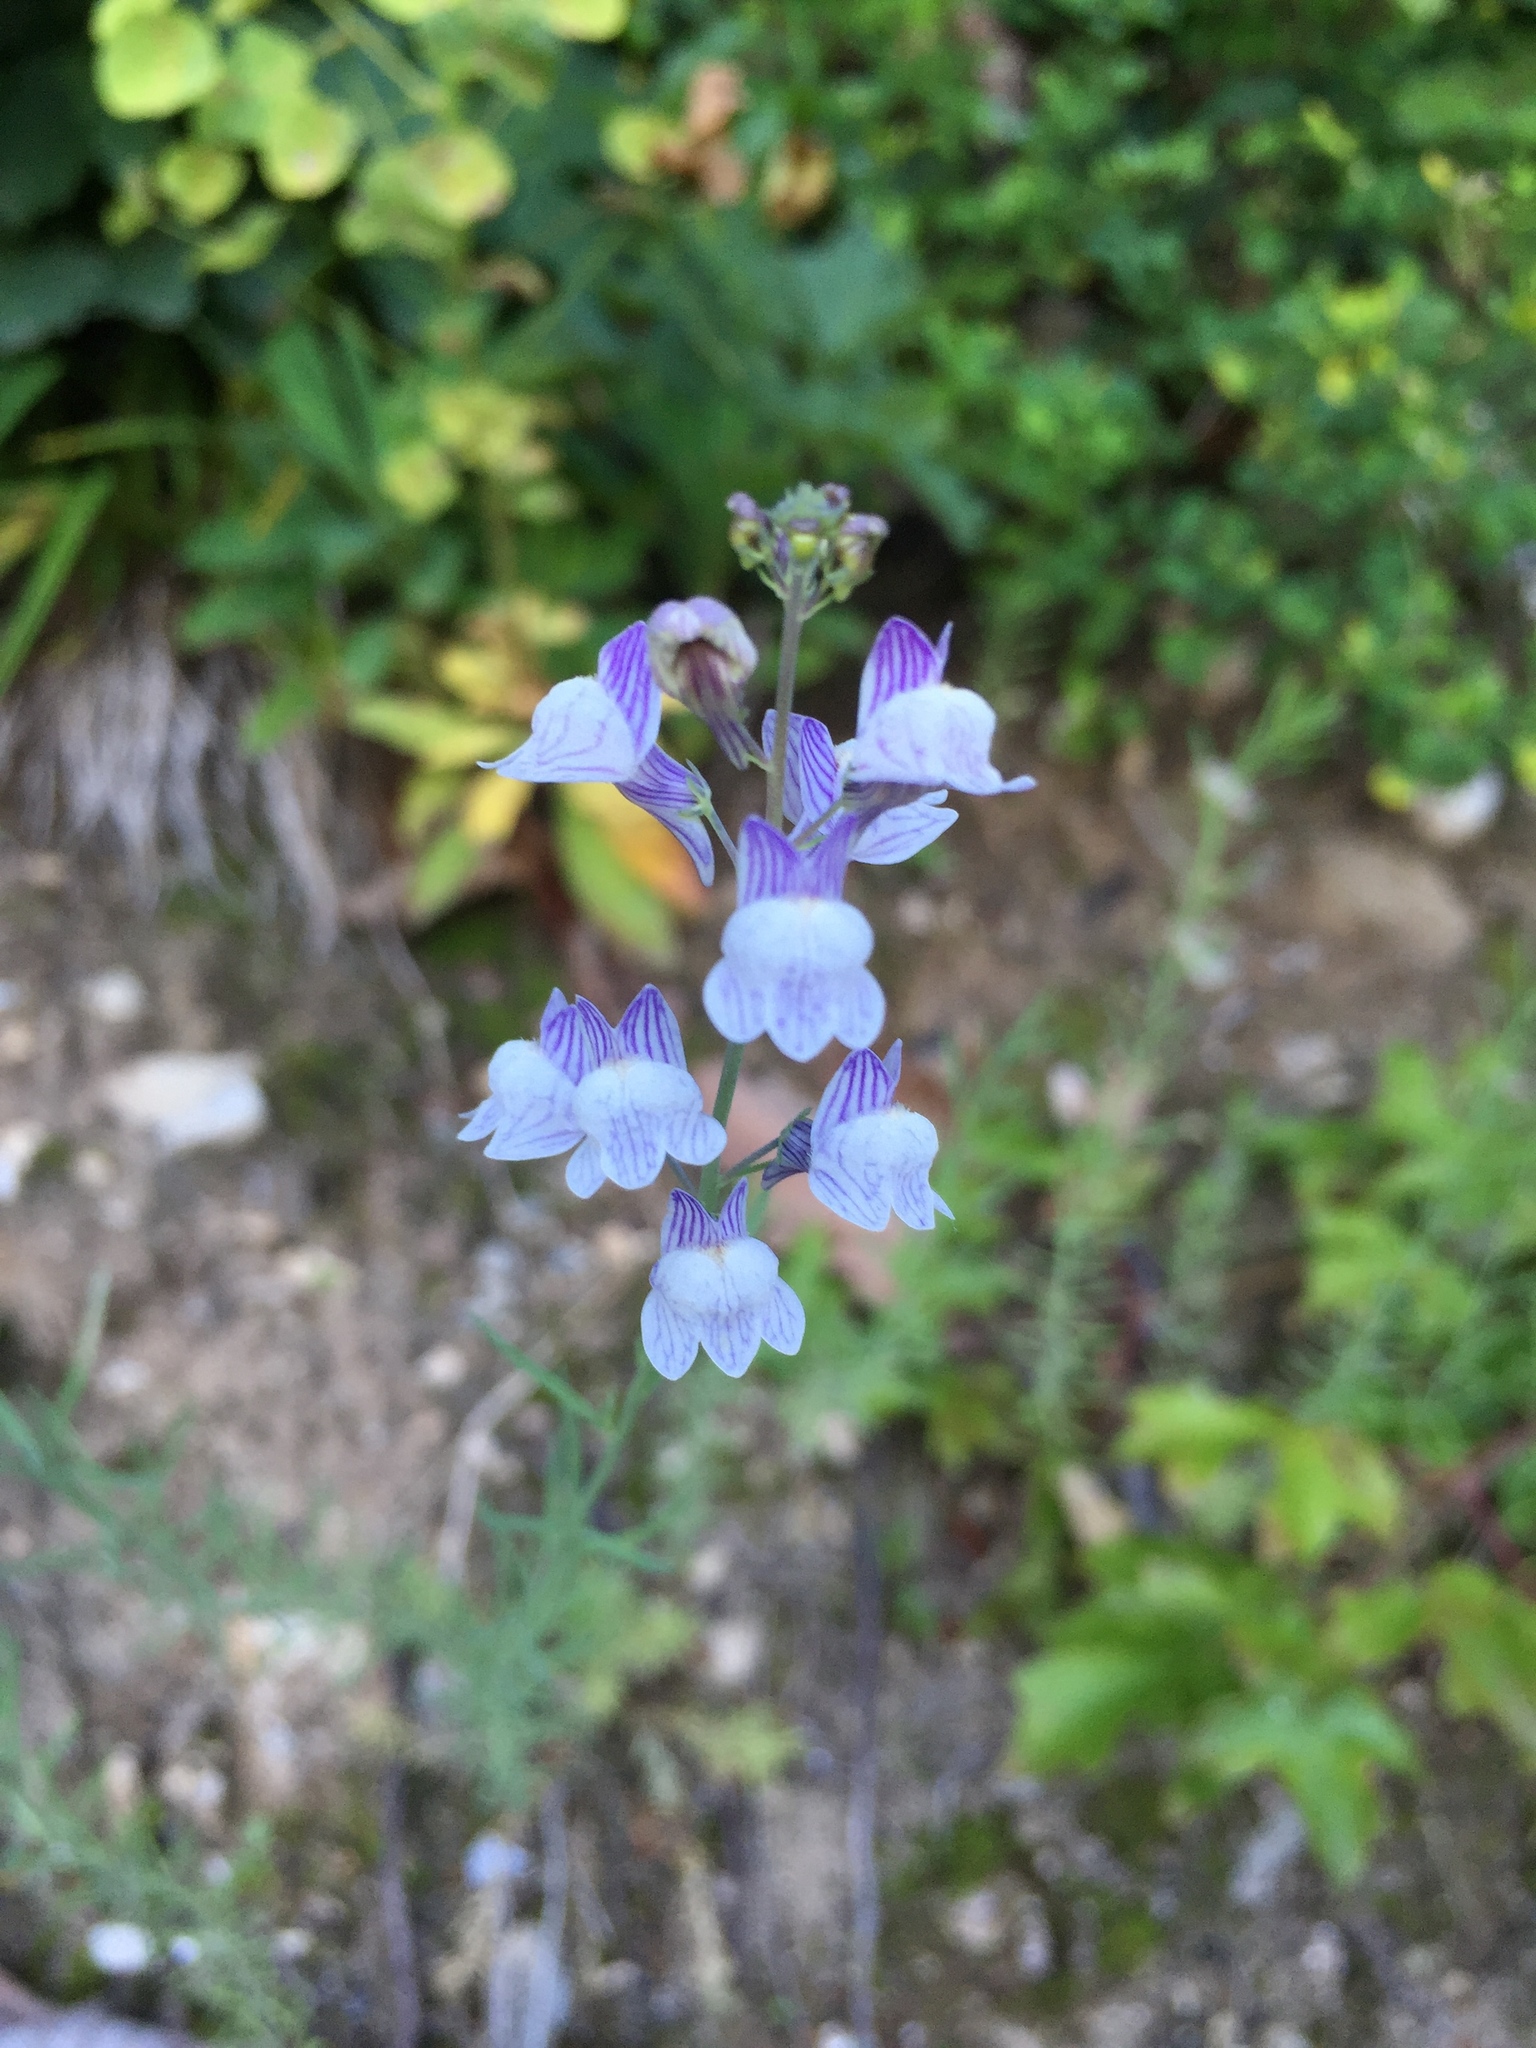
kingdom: Plantae
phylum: Tracheophyta
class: Magnoliopsida
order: Lamiales
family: Plantaginaceae
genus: Linaria
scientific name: Linaria repens
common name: Pale toadflax
